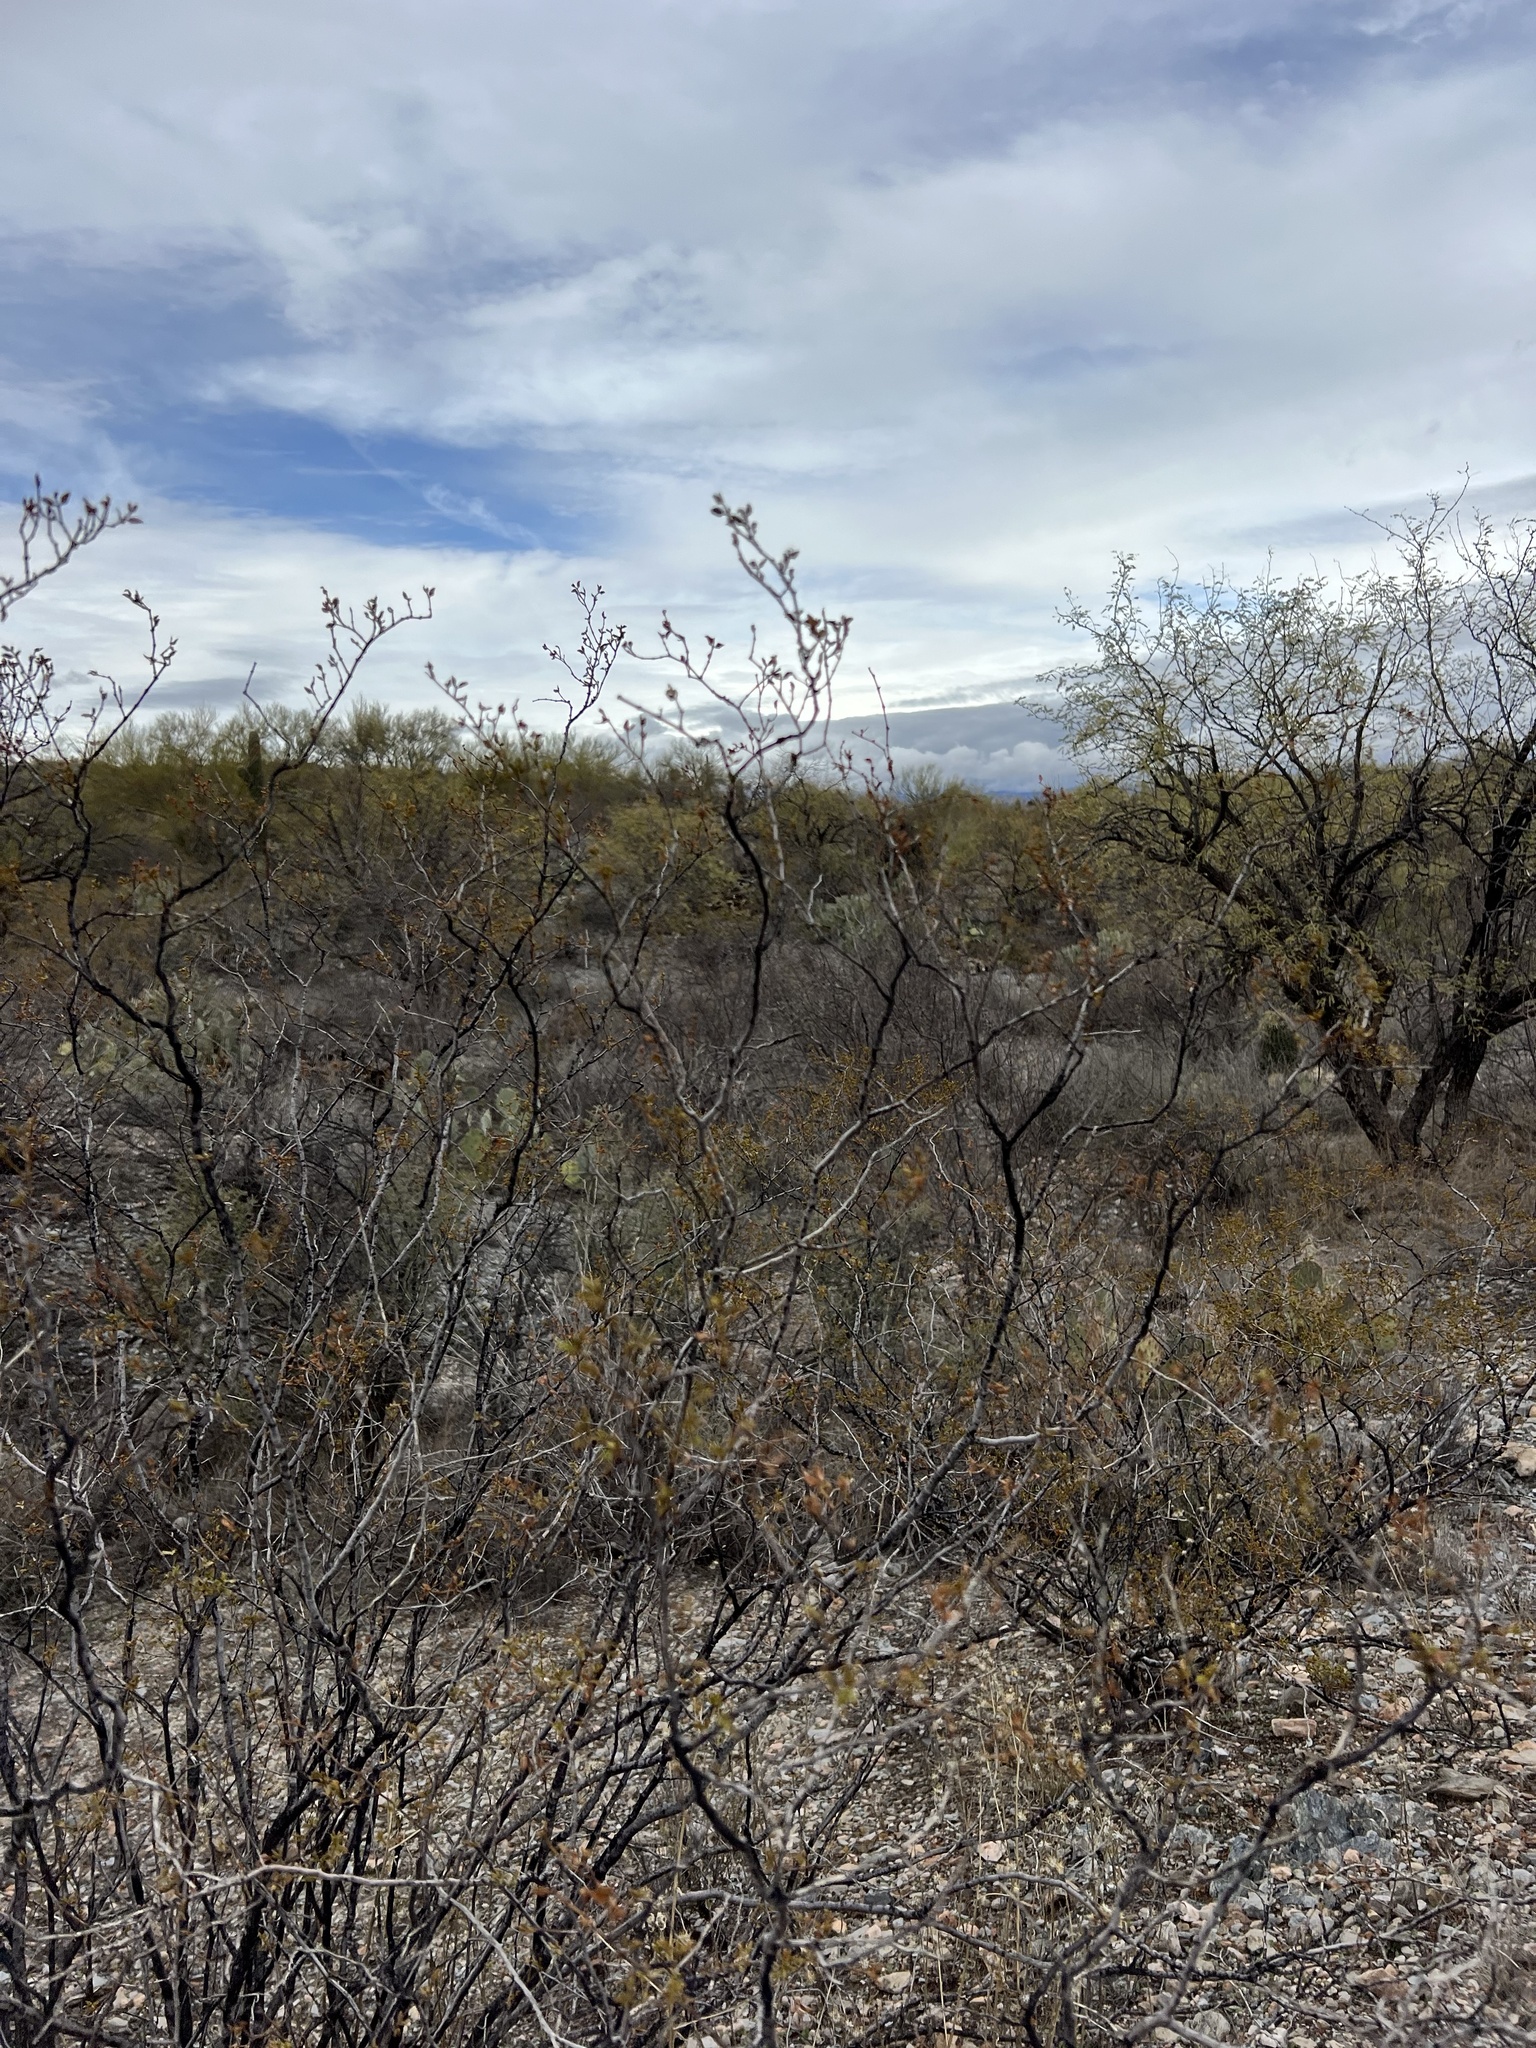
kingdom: Plantae
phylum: Tracheophyta
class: Magnoliopsida
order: Zygophyllales
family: Zygophyllaceae
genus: Larrea
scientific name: Larrea tridentata
